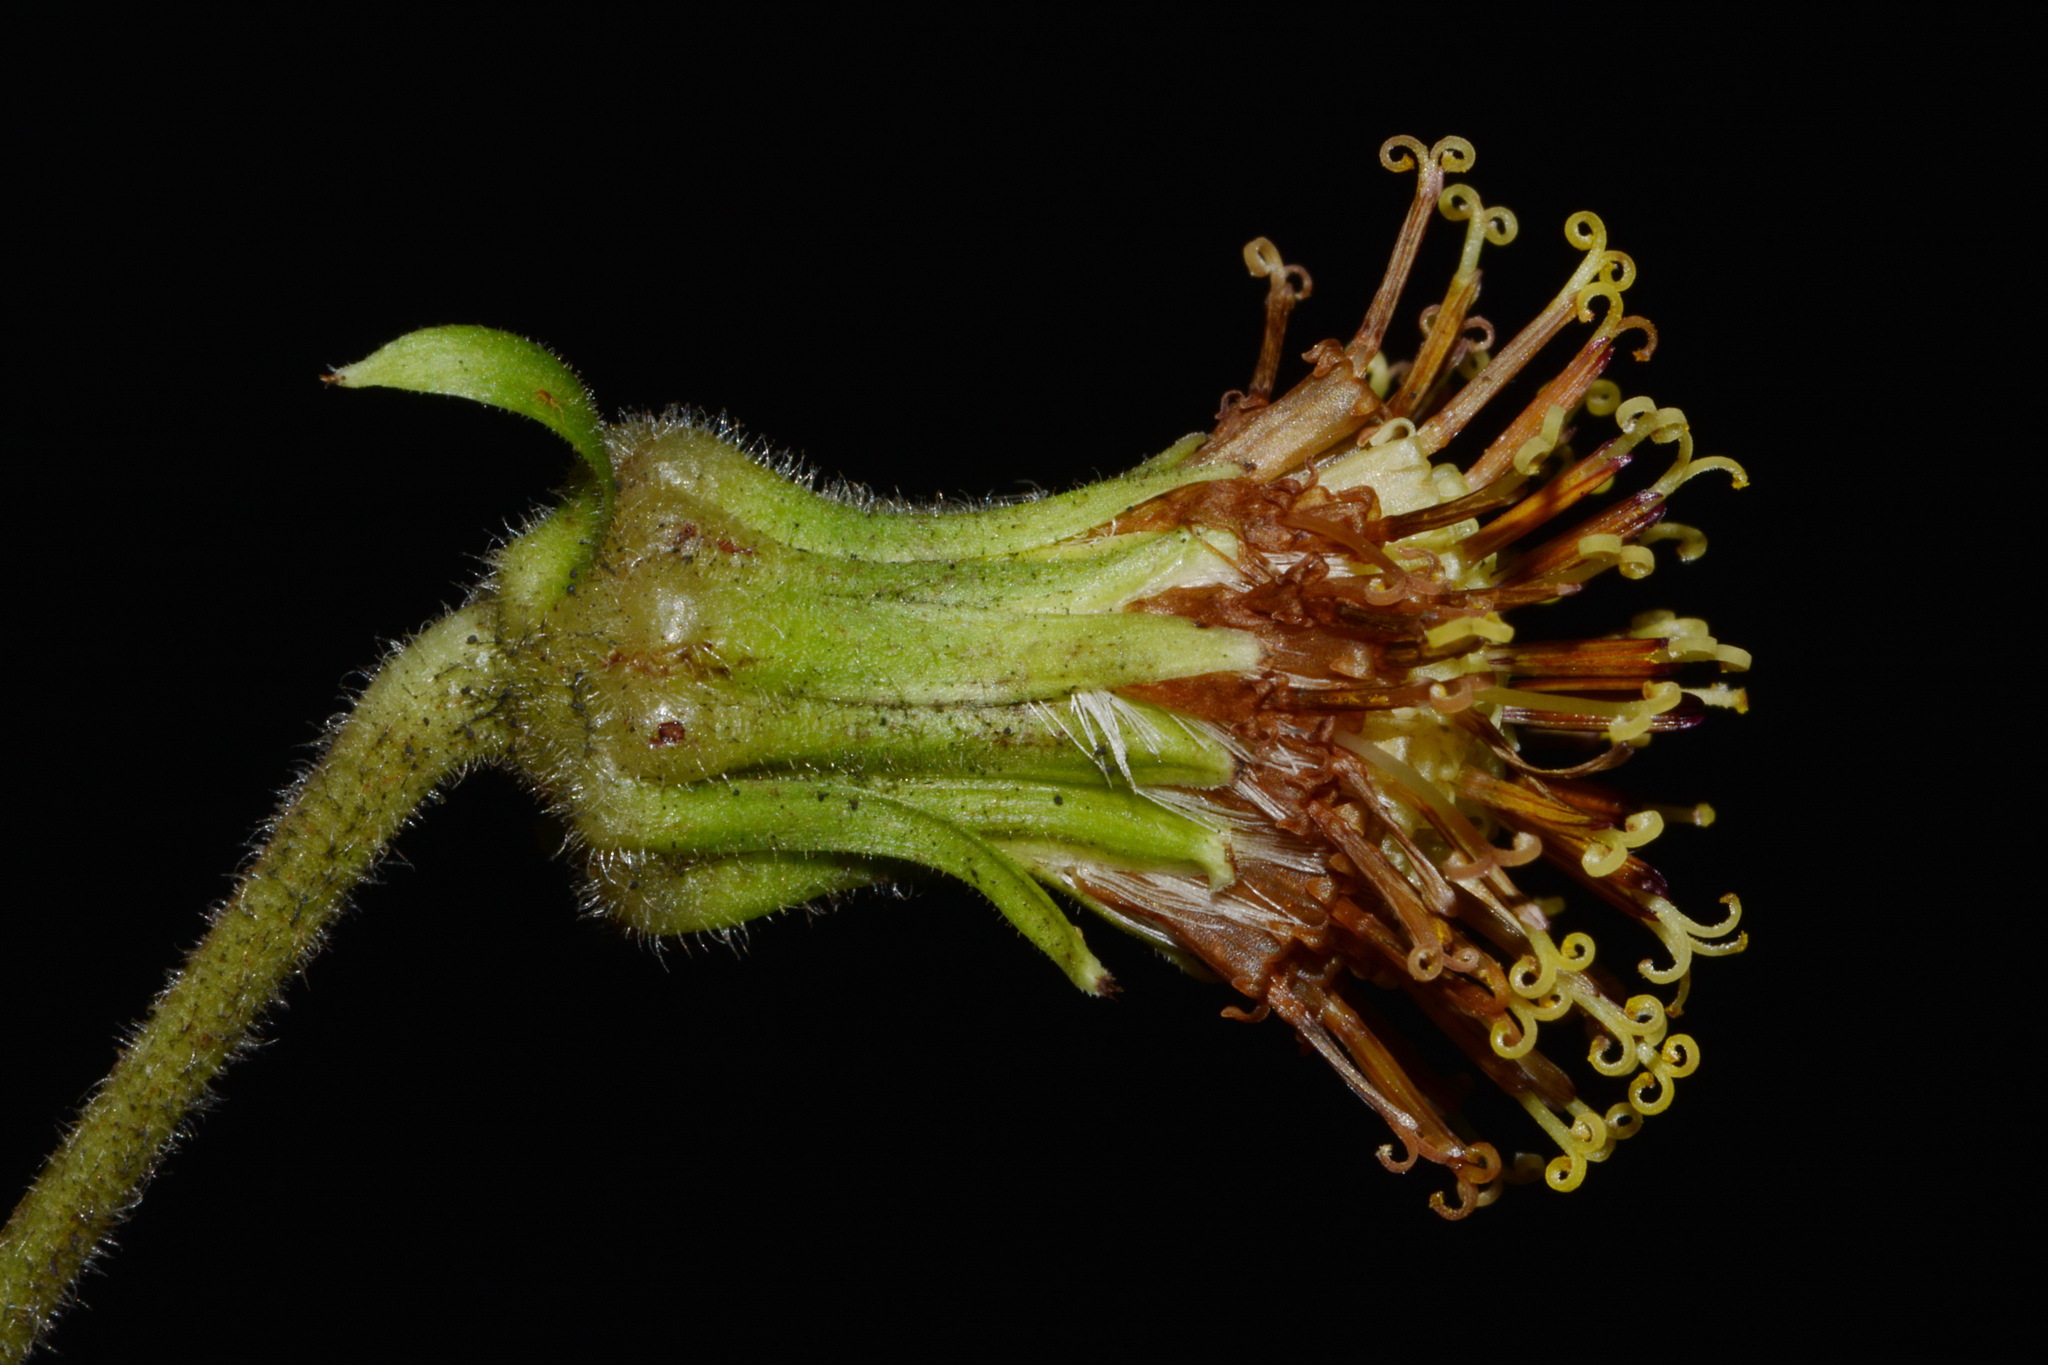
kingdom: Plantae
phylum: Tracheophyta
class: Magnoliopsida
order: Asterales
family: Asteraceae
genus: Rugelia
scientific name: Rugelia nudicaulis
